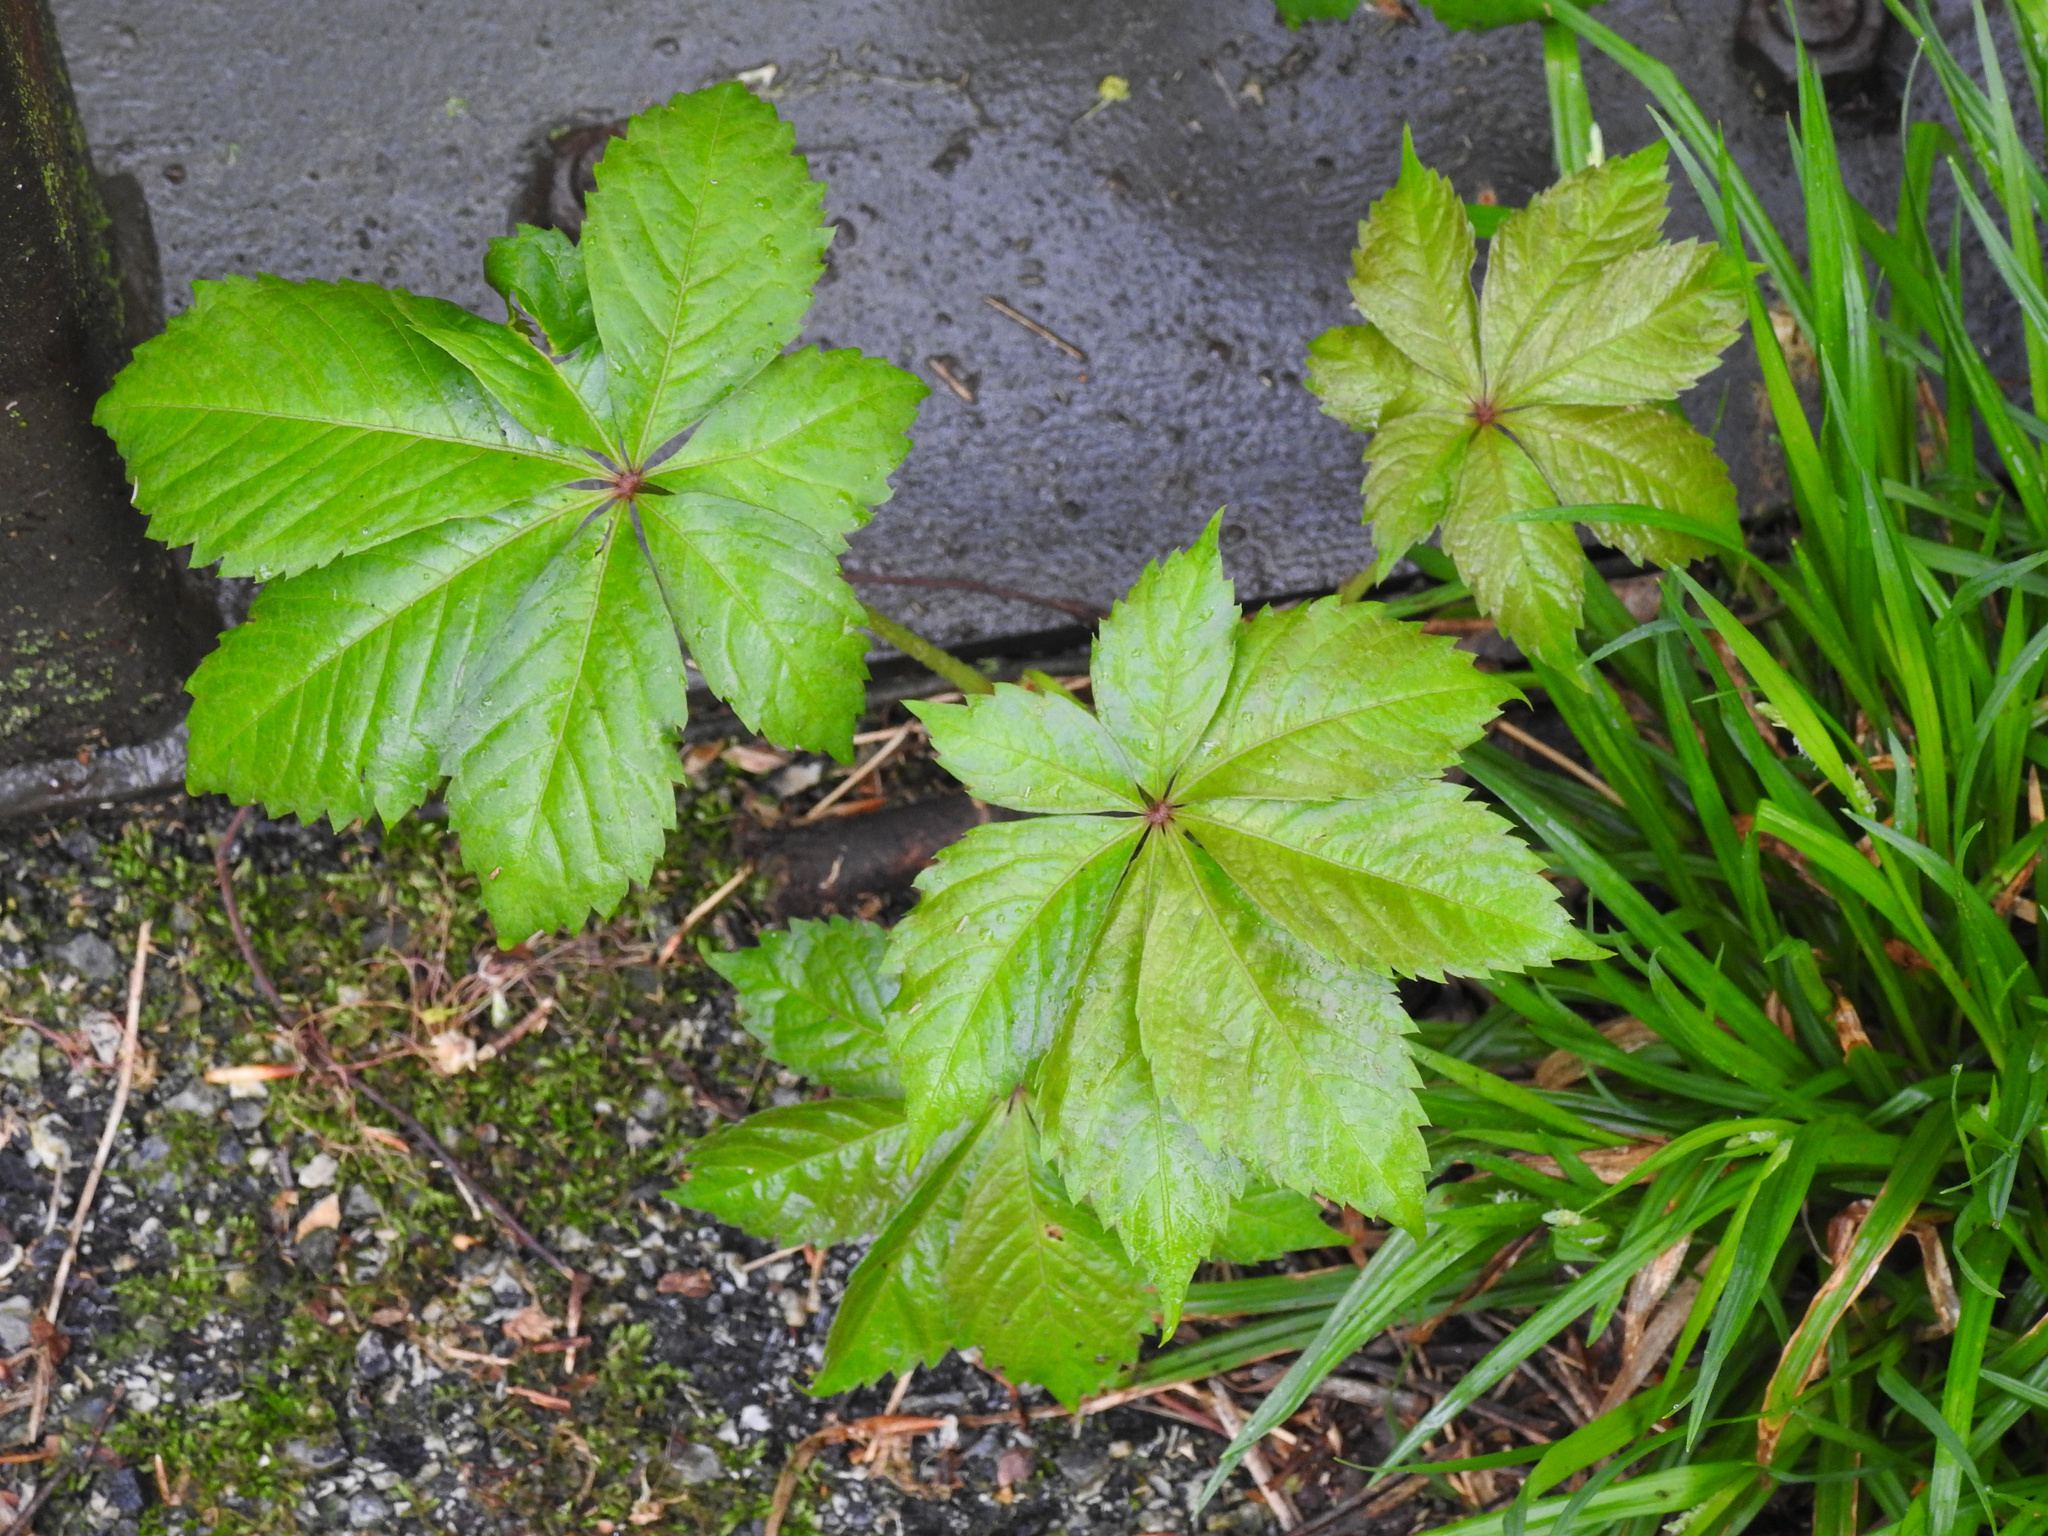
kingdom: Plantae
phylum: Tracheophyta
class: Magnoliopsida
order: Vitales
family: Vitaceae
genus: Parthenocissus
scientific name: Parthenocissus quinquefolia
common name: Virginia-creeper
